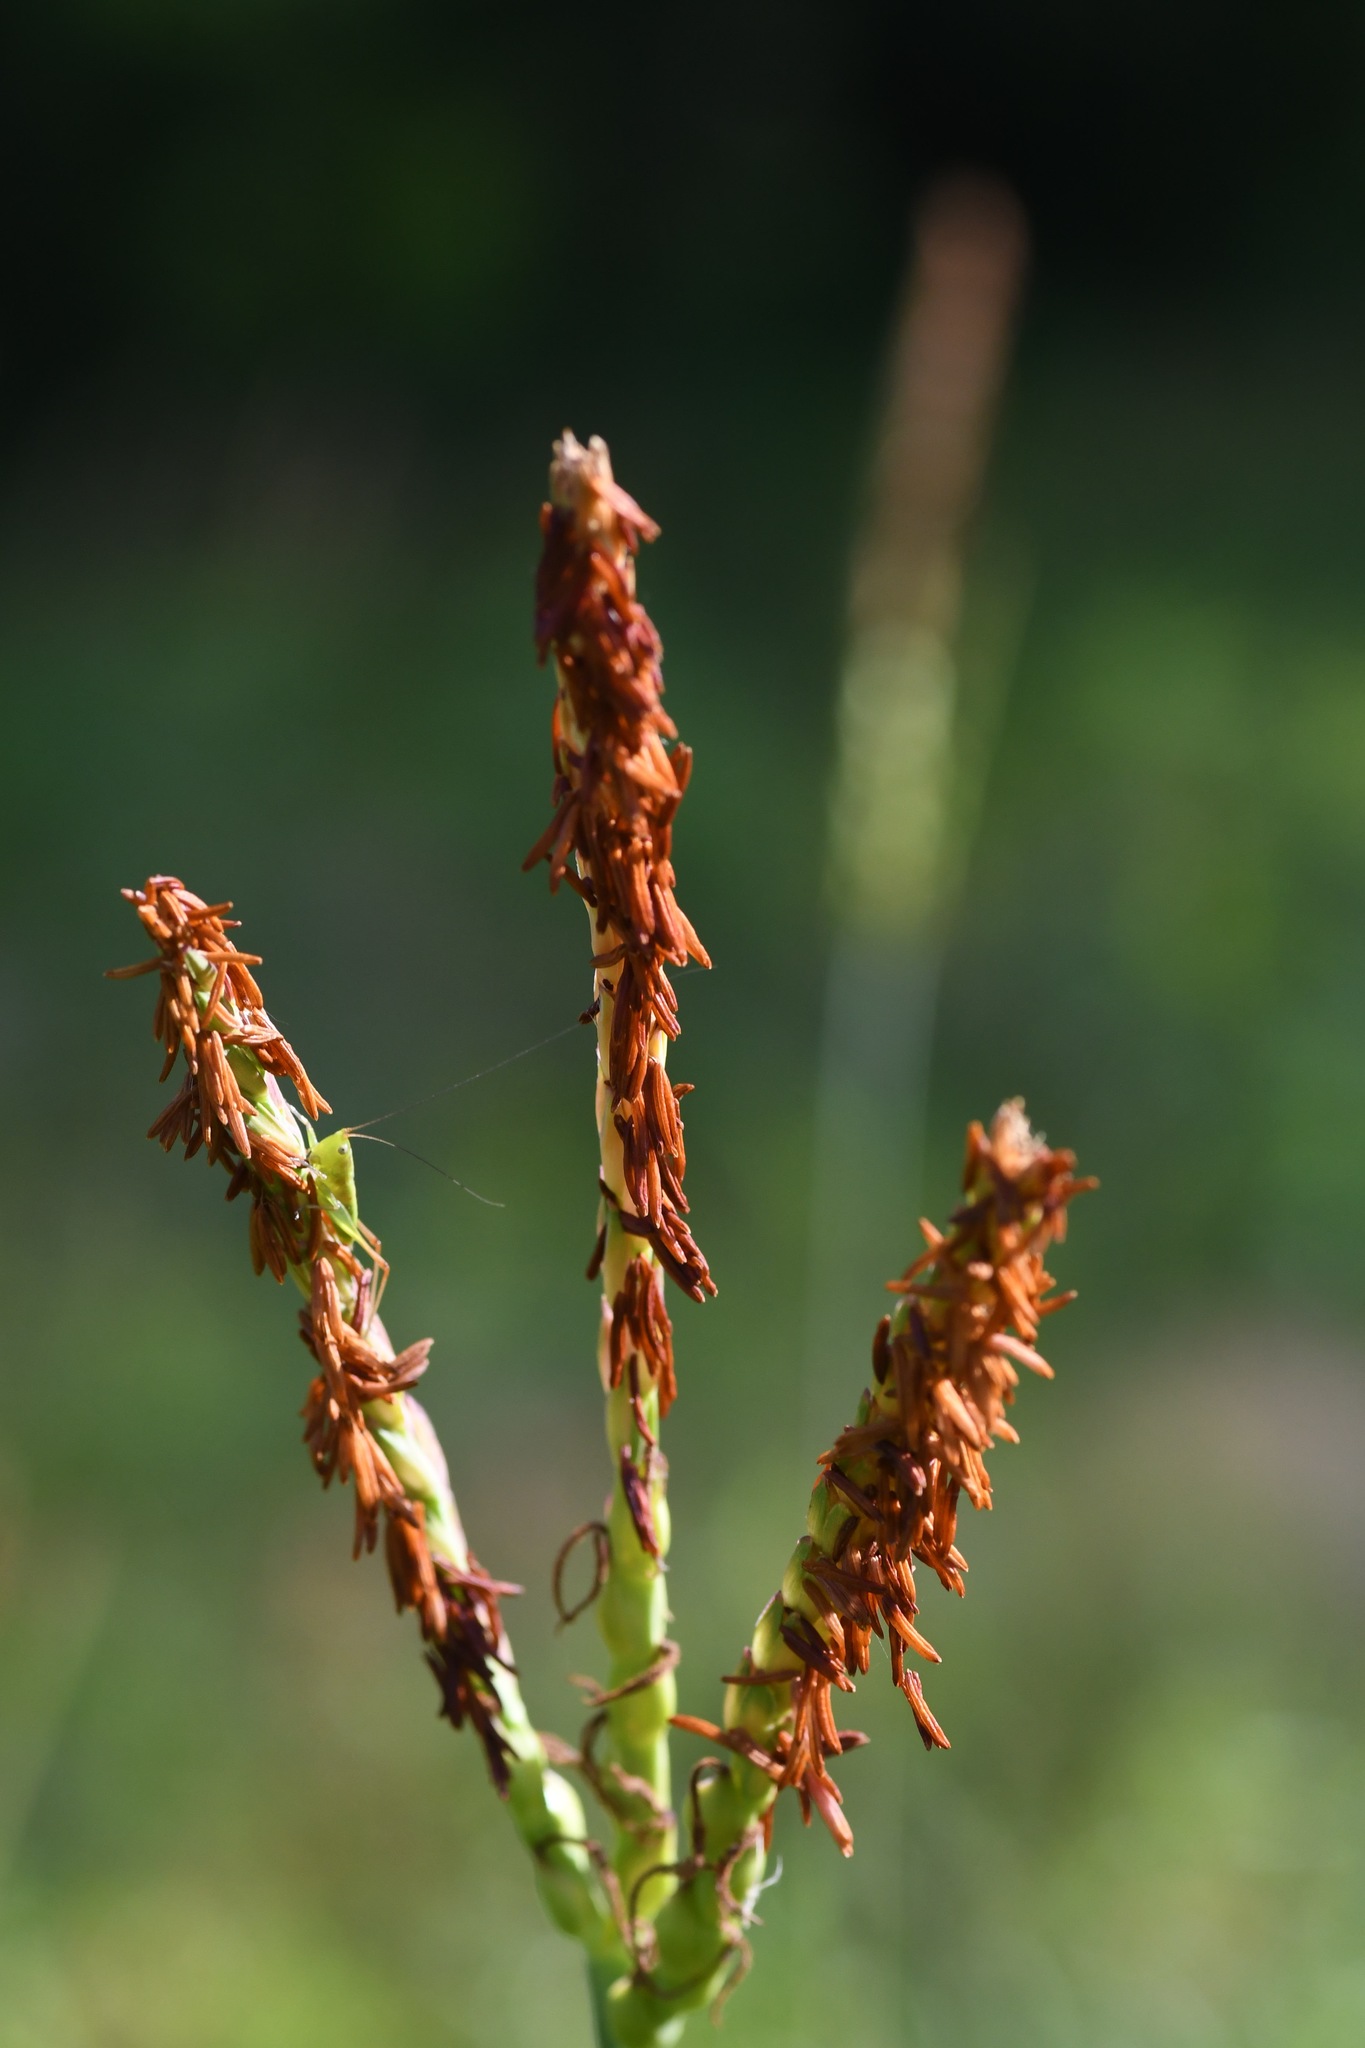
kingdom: Plantae
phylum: Tracheophyta
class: Liliopsida
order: Poales
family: Poaceae
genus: Tripsacum
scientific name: Tripsacum dactyloides
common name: Buffalo-grass
